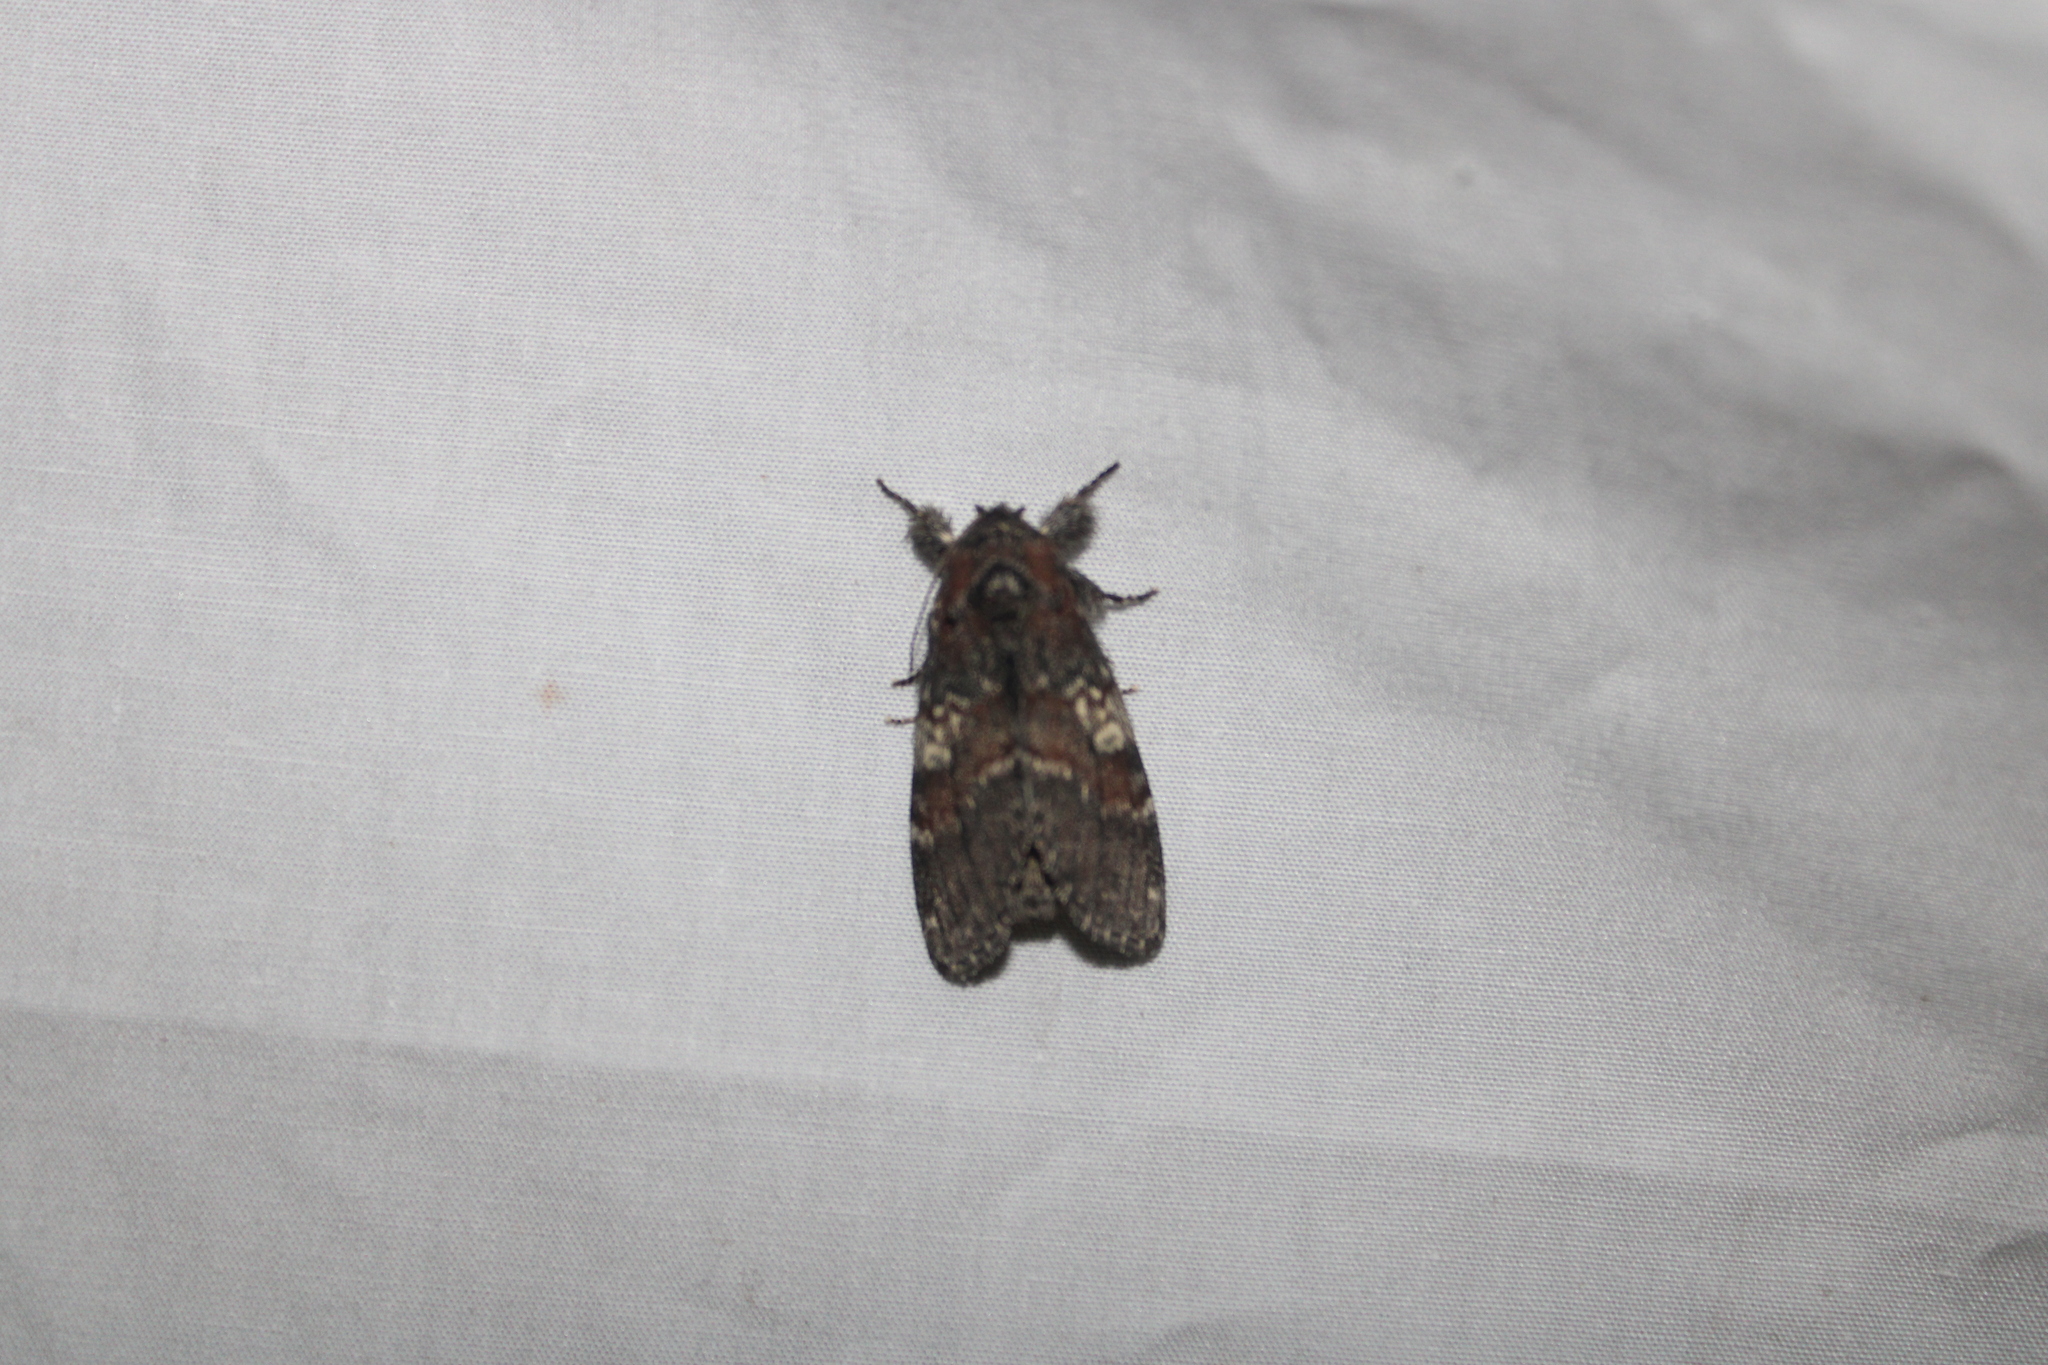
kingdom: Animalia
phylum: Arthropoda
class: Insecta
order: Lepidoptera
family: Notodontidae
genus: Peridea
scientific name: Peridea ferruginea
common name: Chocolate prominent
